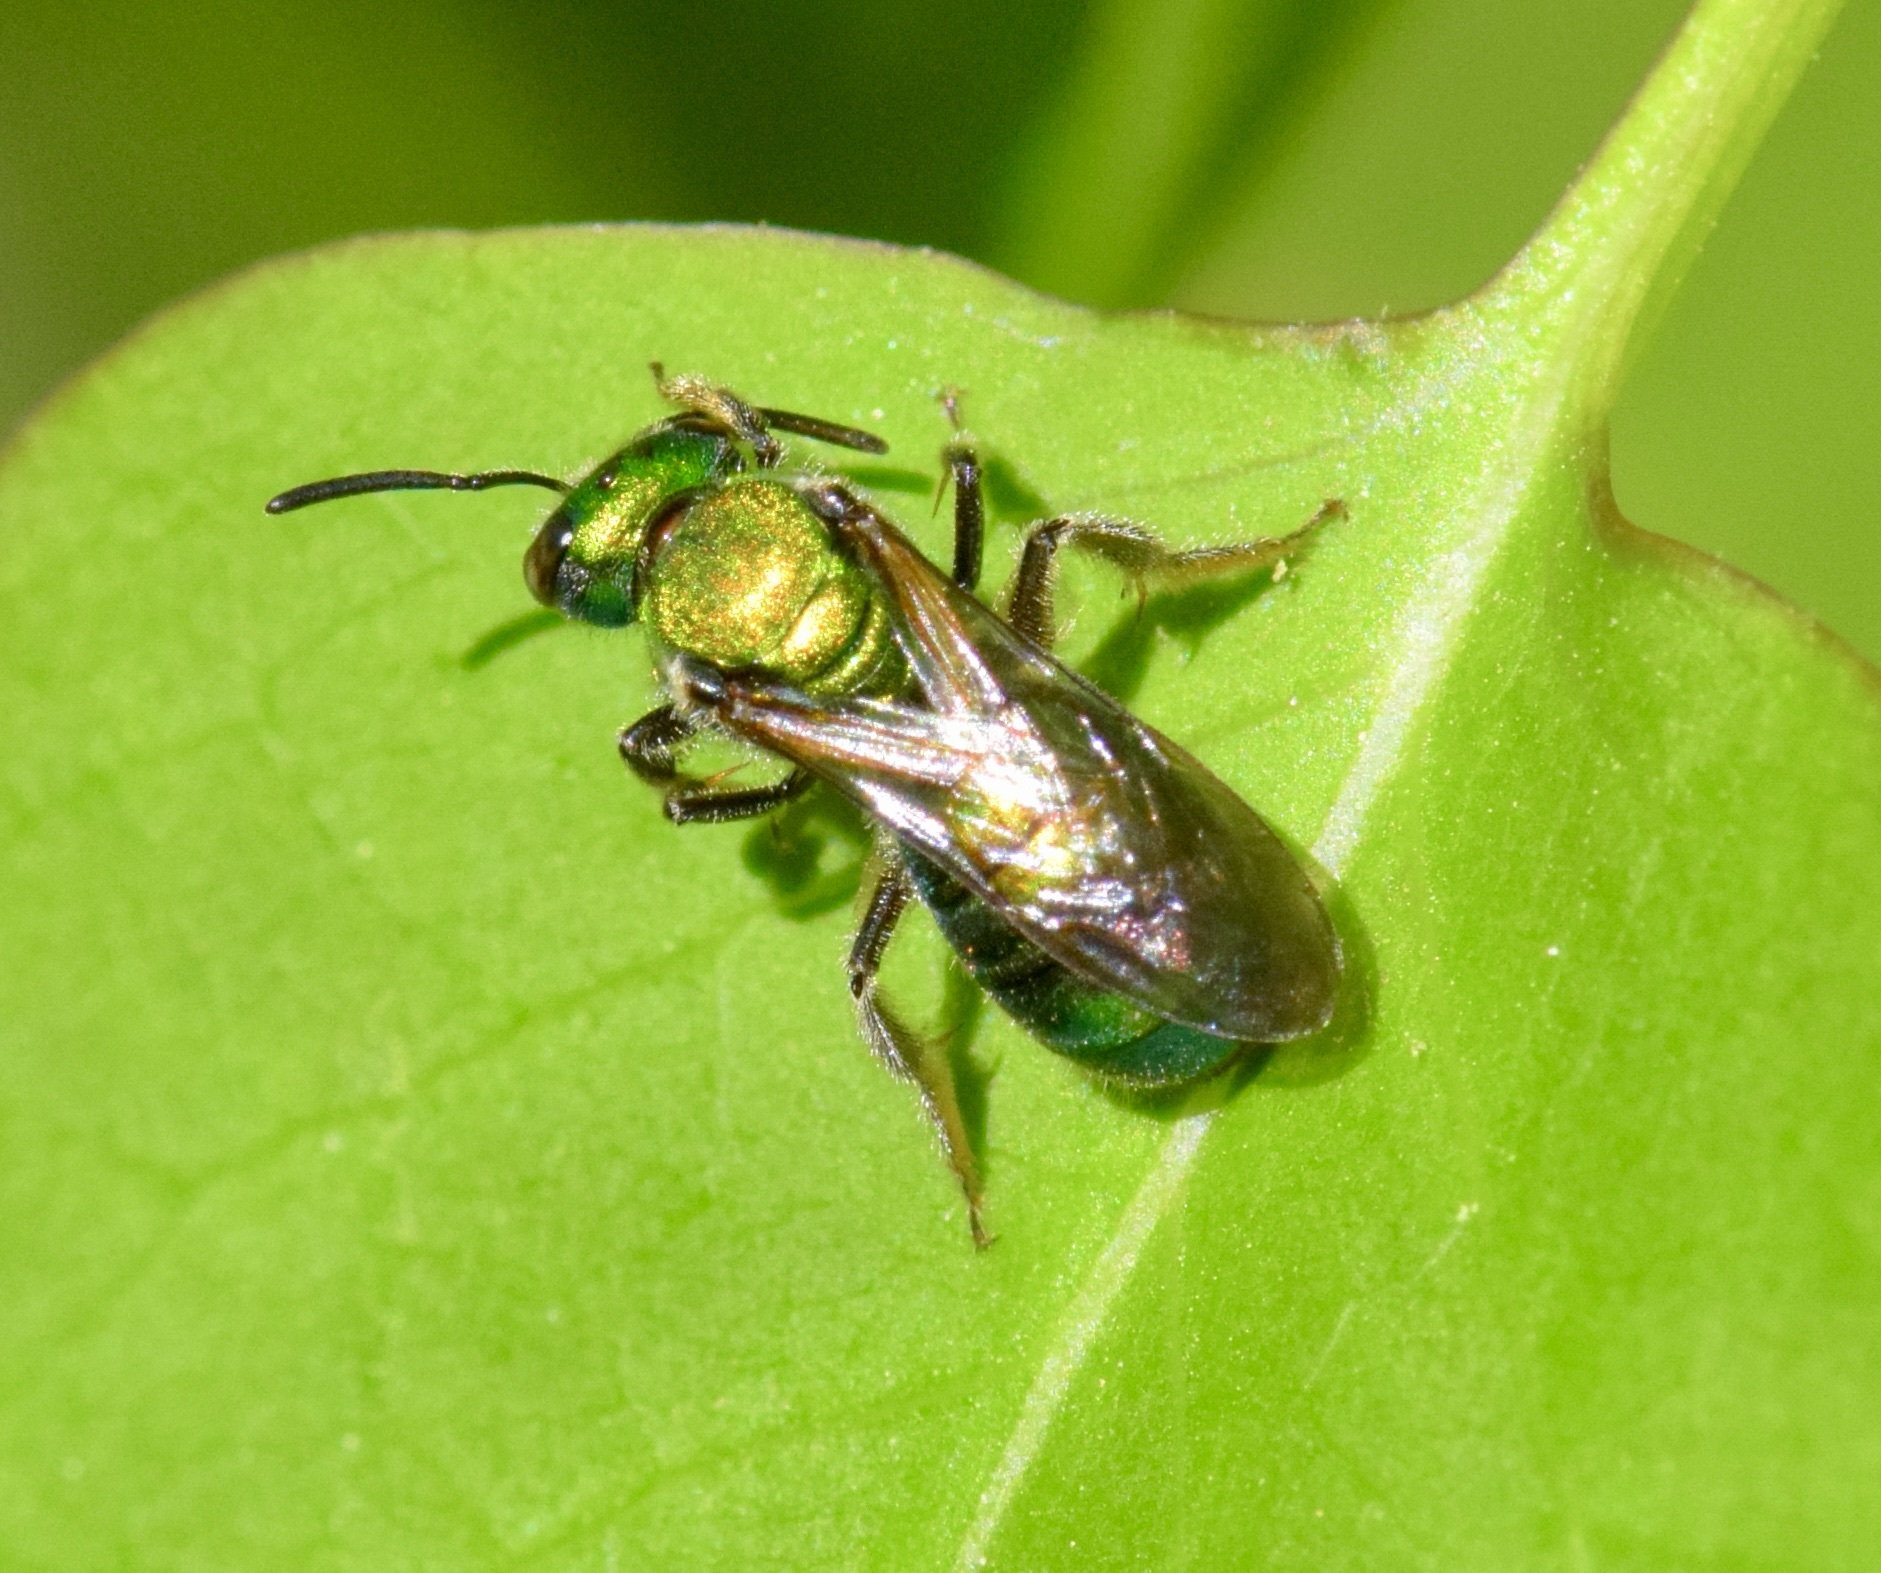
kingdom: Animalia
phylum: Arthropoda
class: Insecta
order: Hymenoptera
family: Halictidae
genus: Augochlora
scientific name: Augochlora pura
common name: Pure green sweat bee
